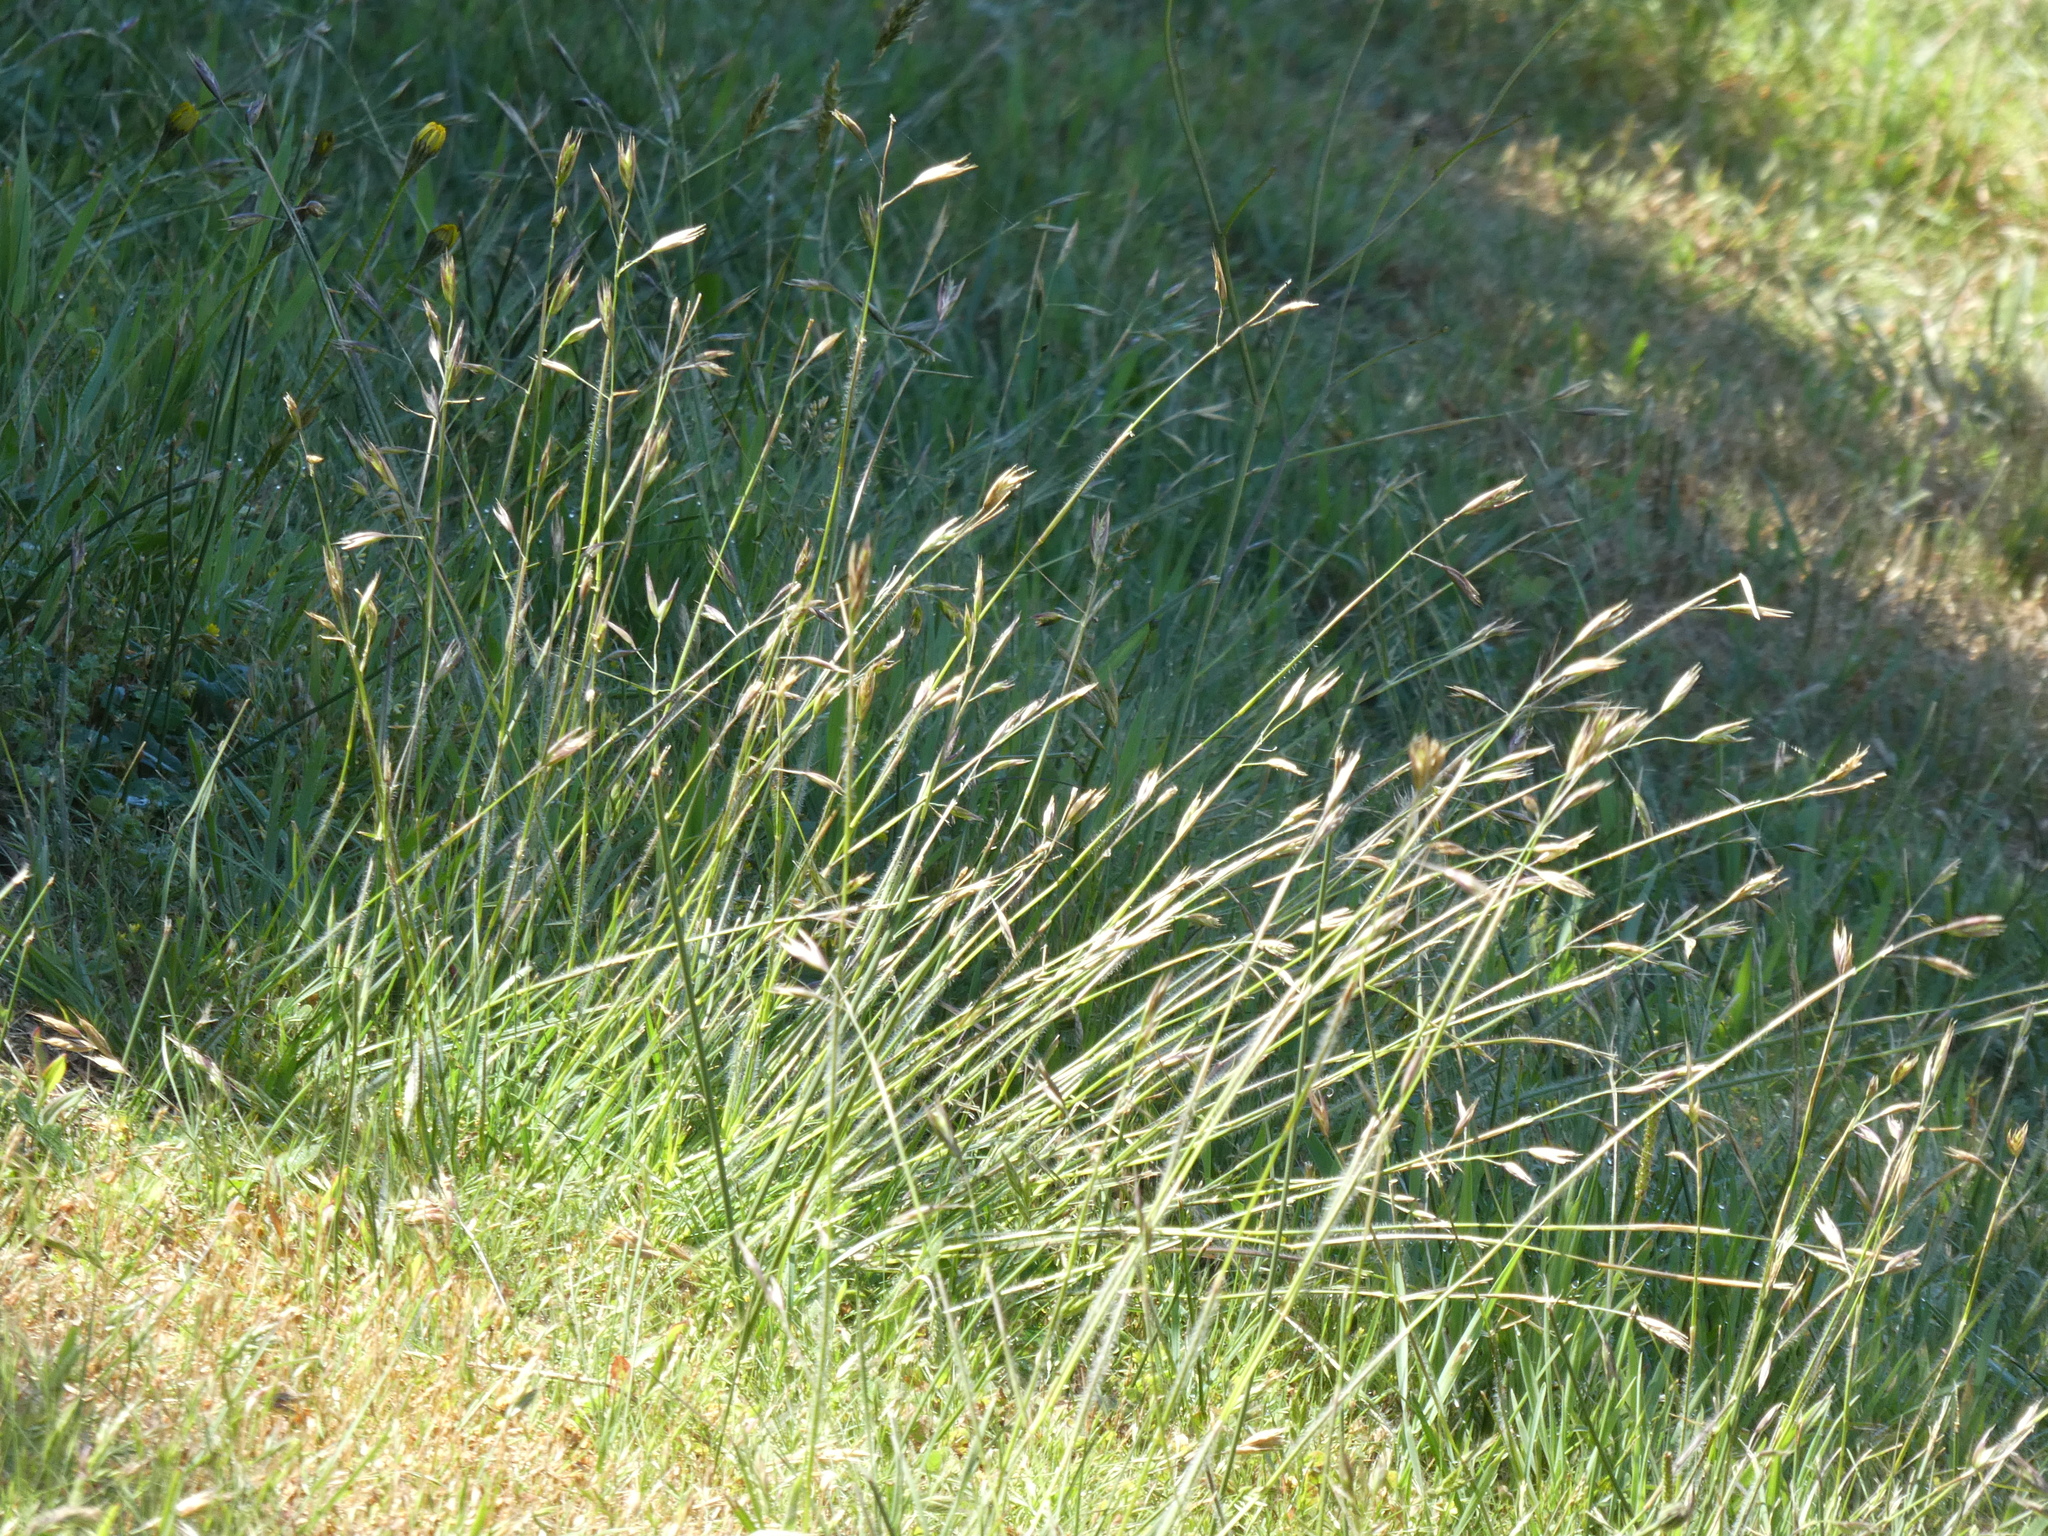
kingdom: Plantae
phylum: Tracheophyta
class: Liliopsida
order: Poales
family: Poaceae
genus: Danthonia
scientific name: Danthonia californica
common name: California oat grass
